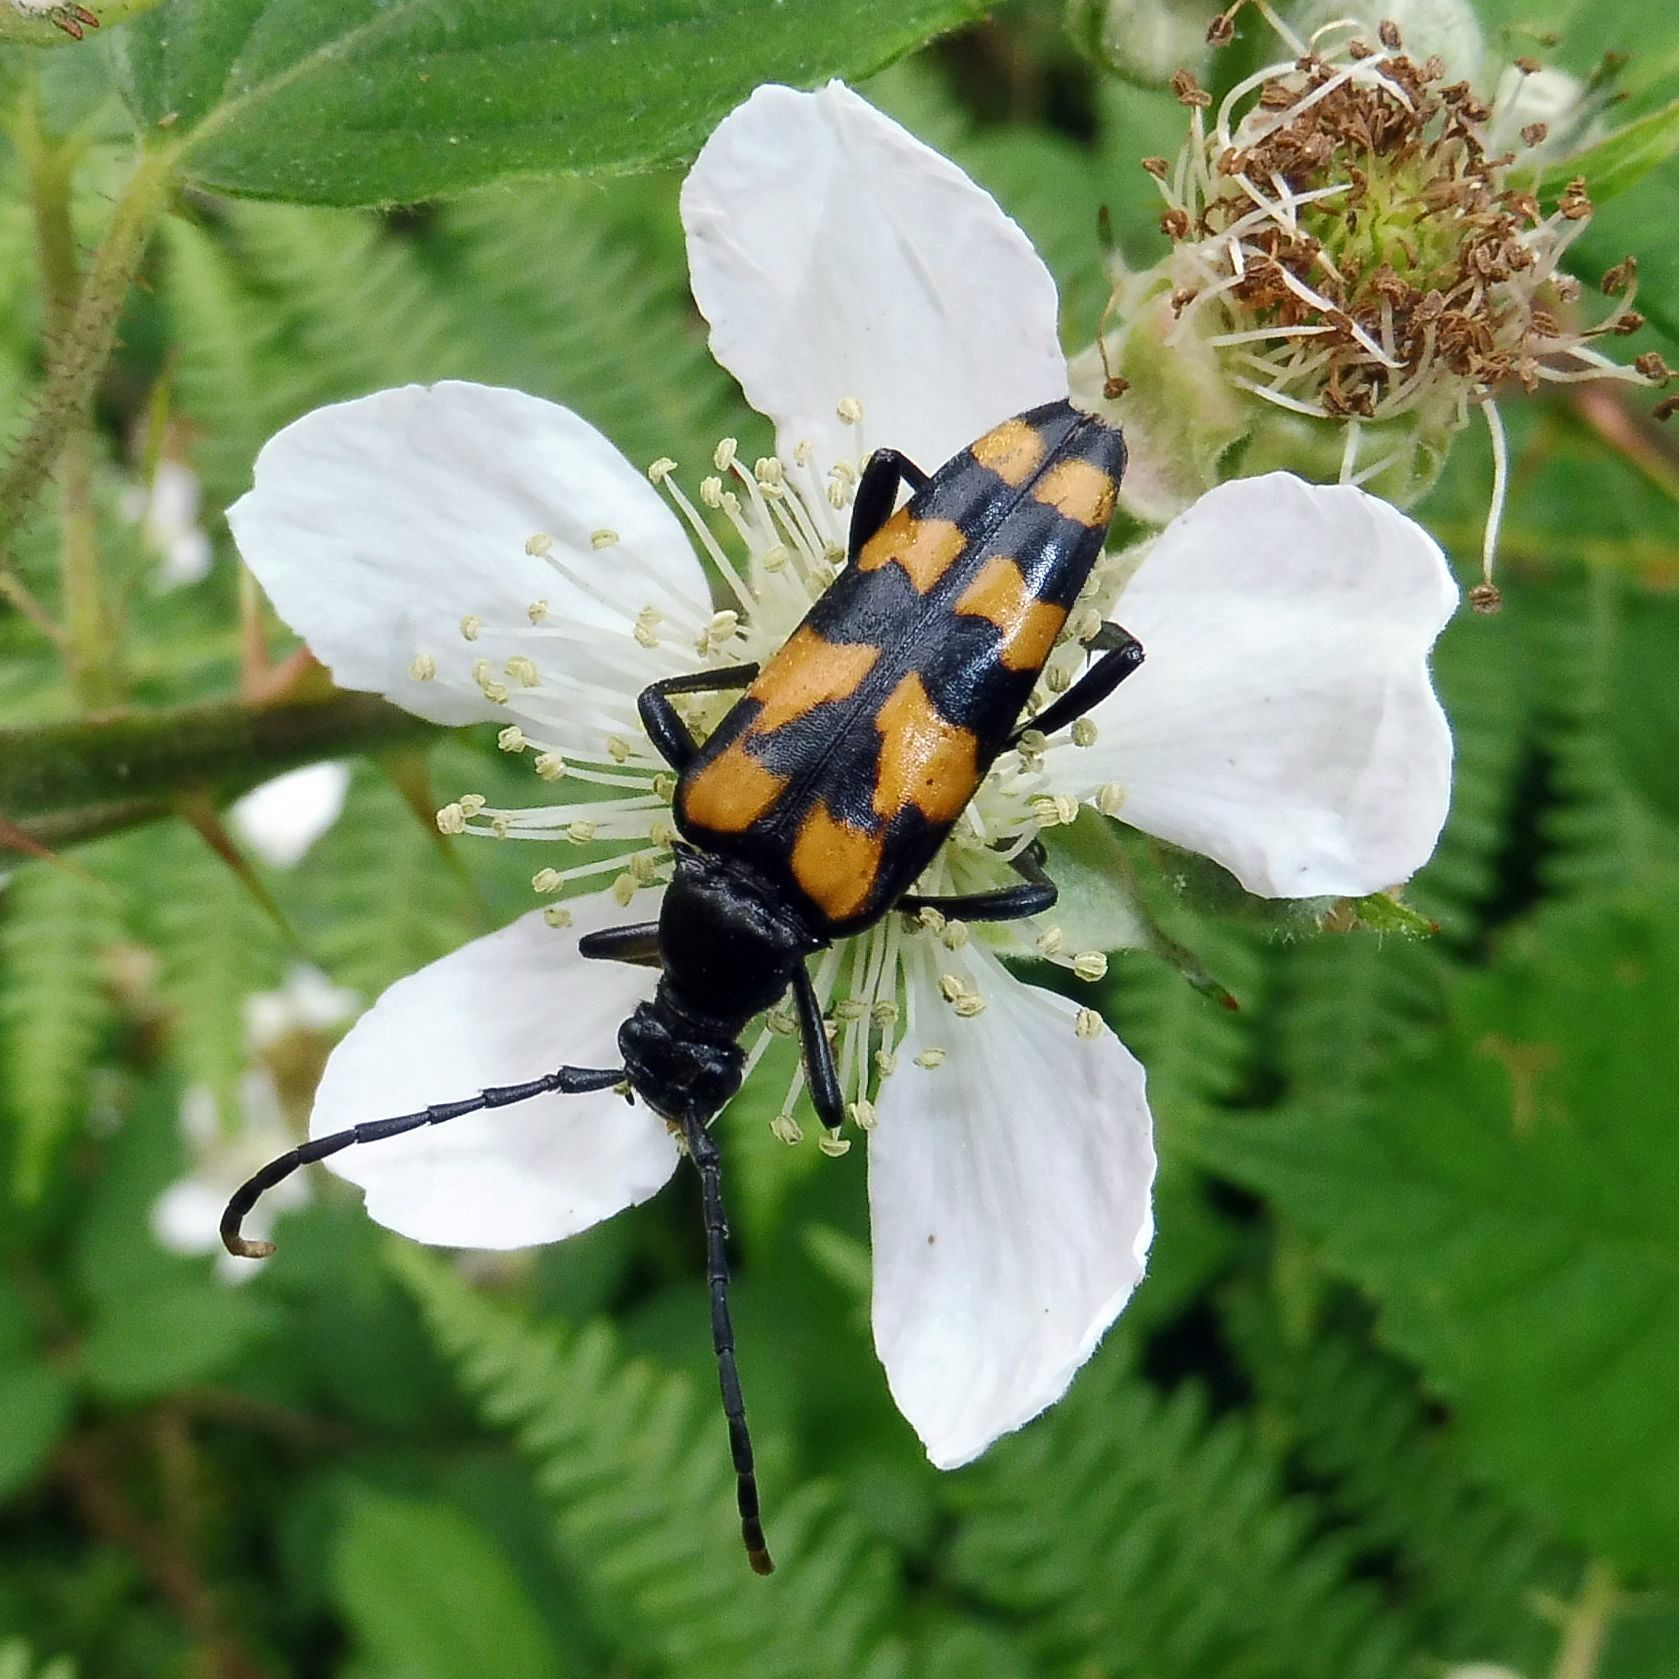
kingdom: Animalia
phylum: Arthropoda
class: Insecta
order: Coleoptera
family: Cerambycidae
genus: Leptura
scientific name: Leptura quadrifasciata
